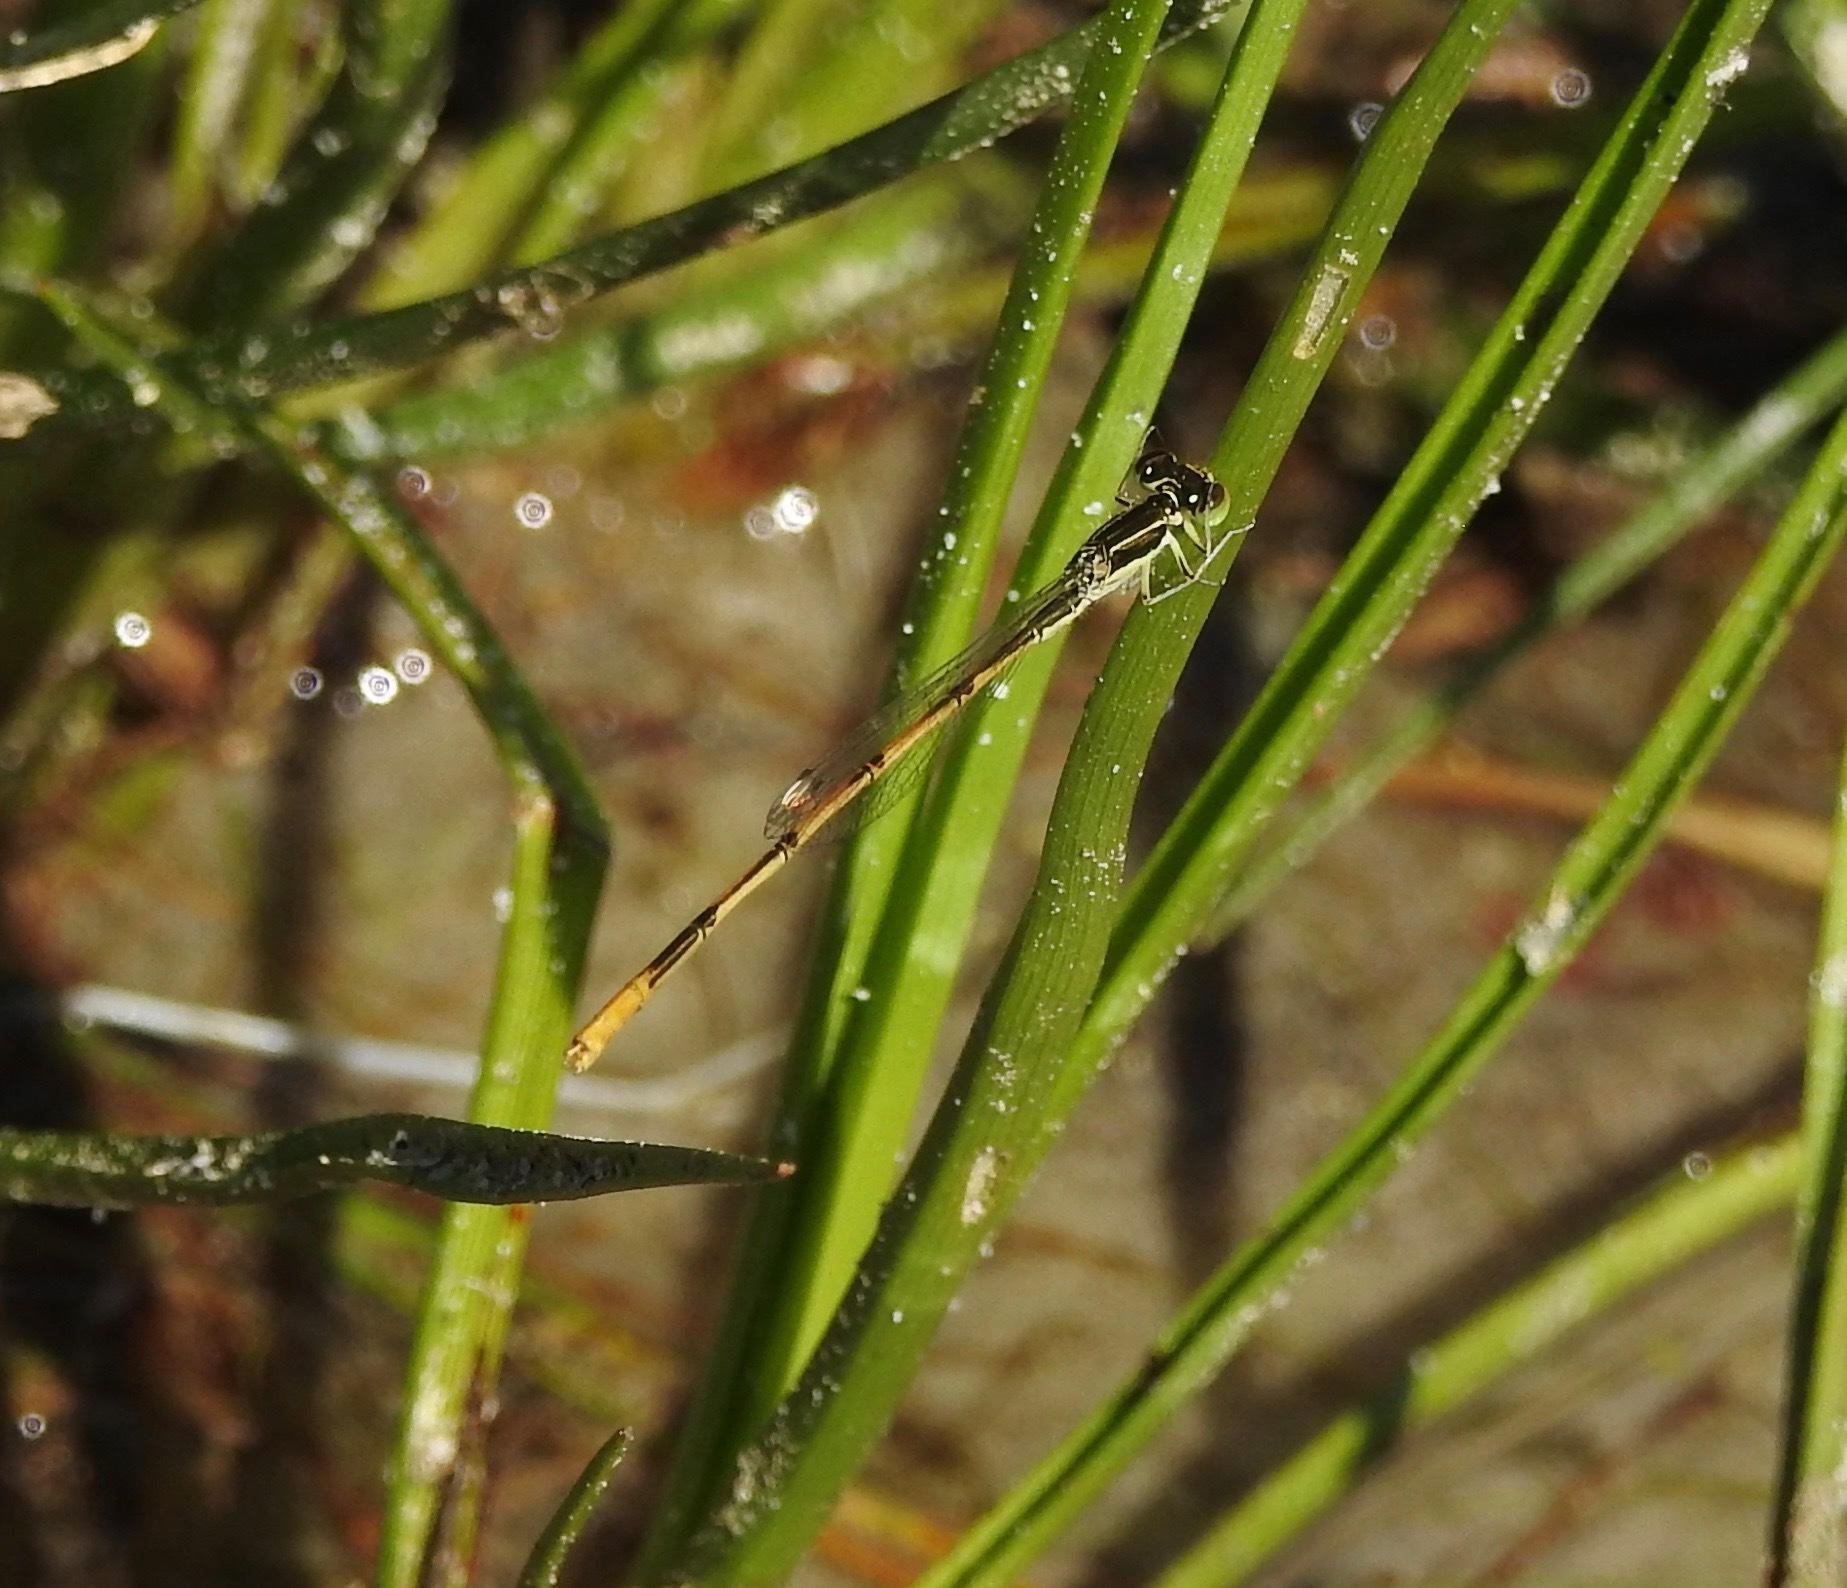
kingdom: Animalia
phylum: Arthropoda
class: Insecta
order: Odonata
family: Coenagrionidae
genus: Ischnura
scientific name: Ischnura hastata
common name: Citrine forktail
